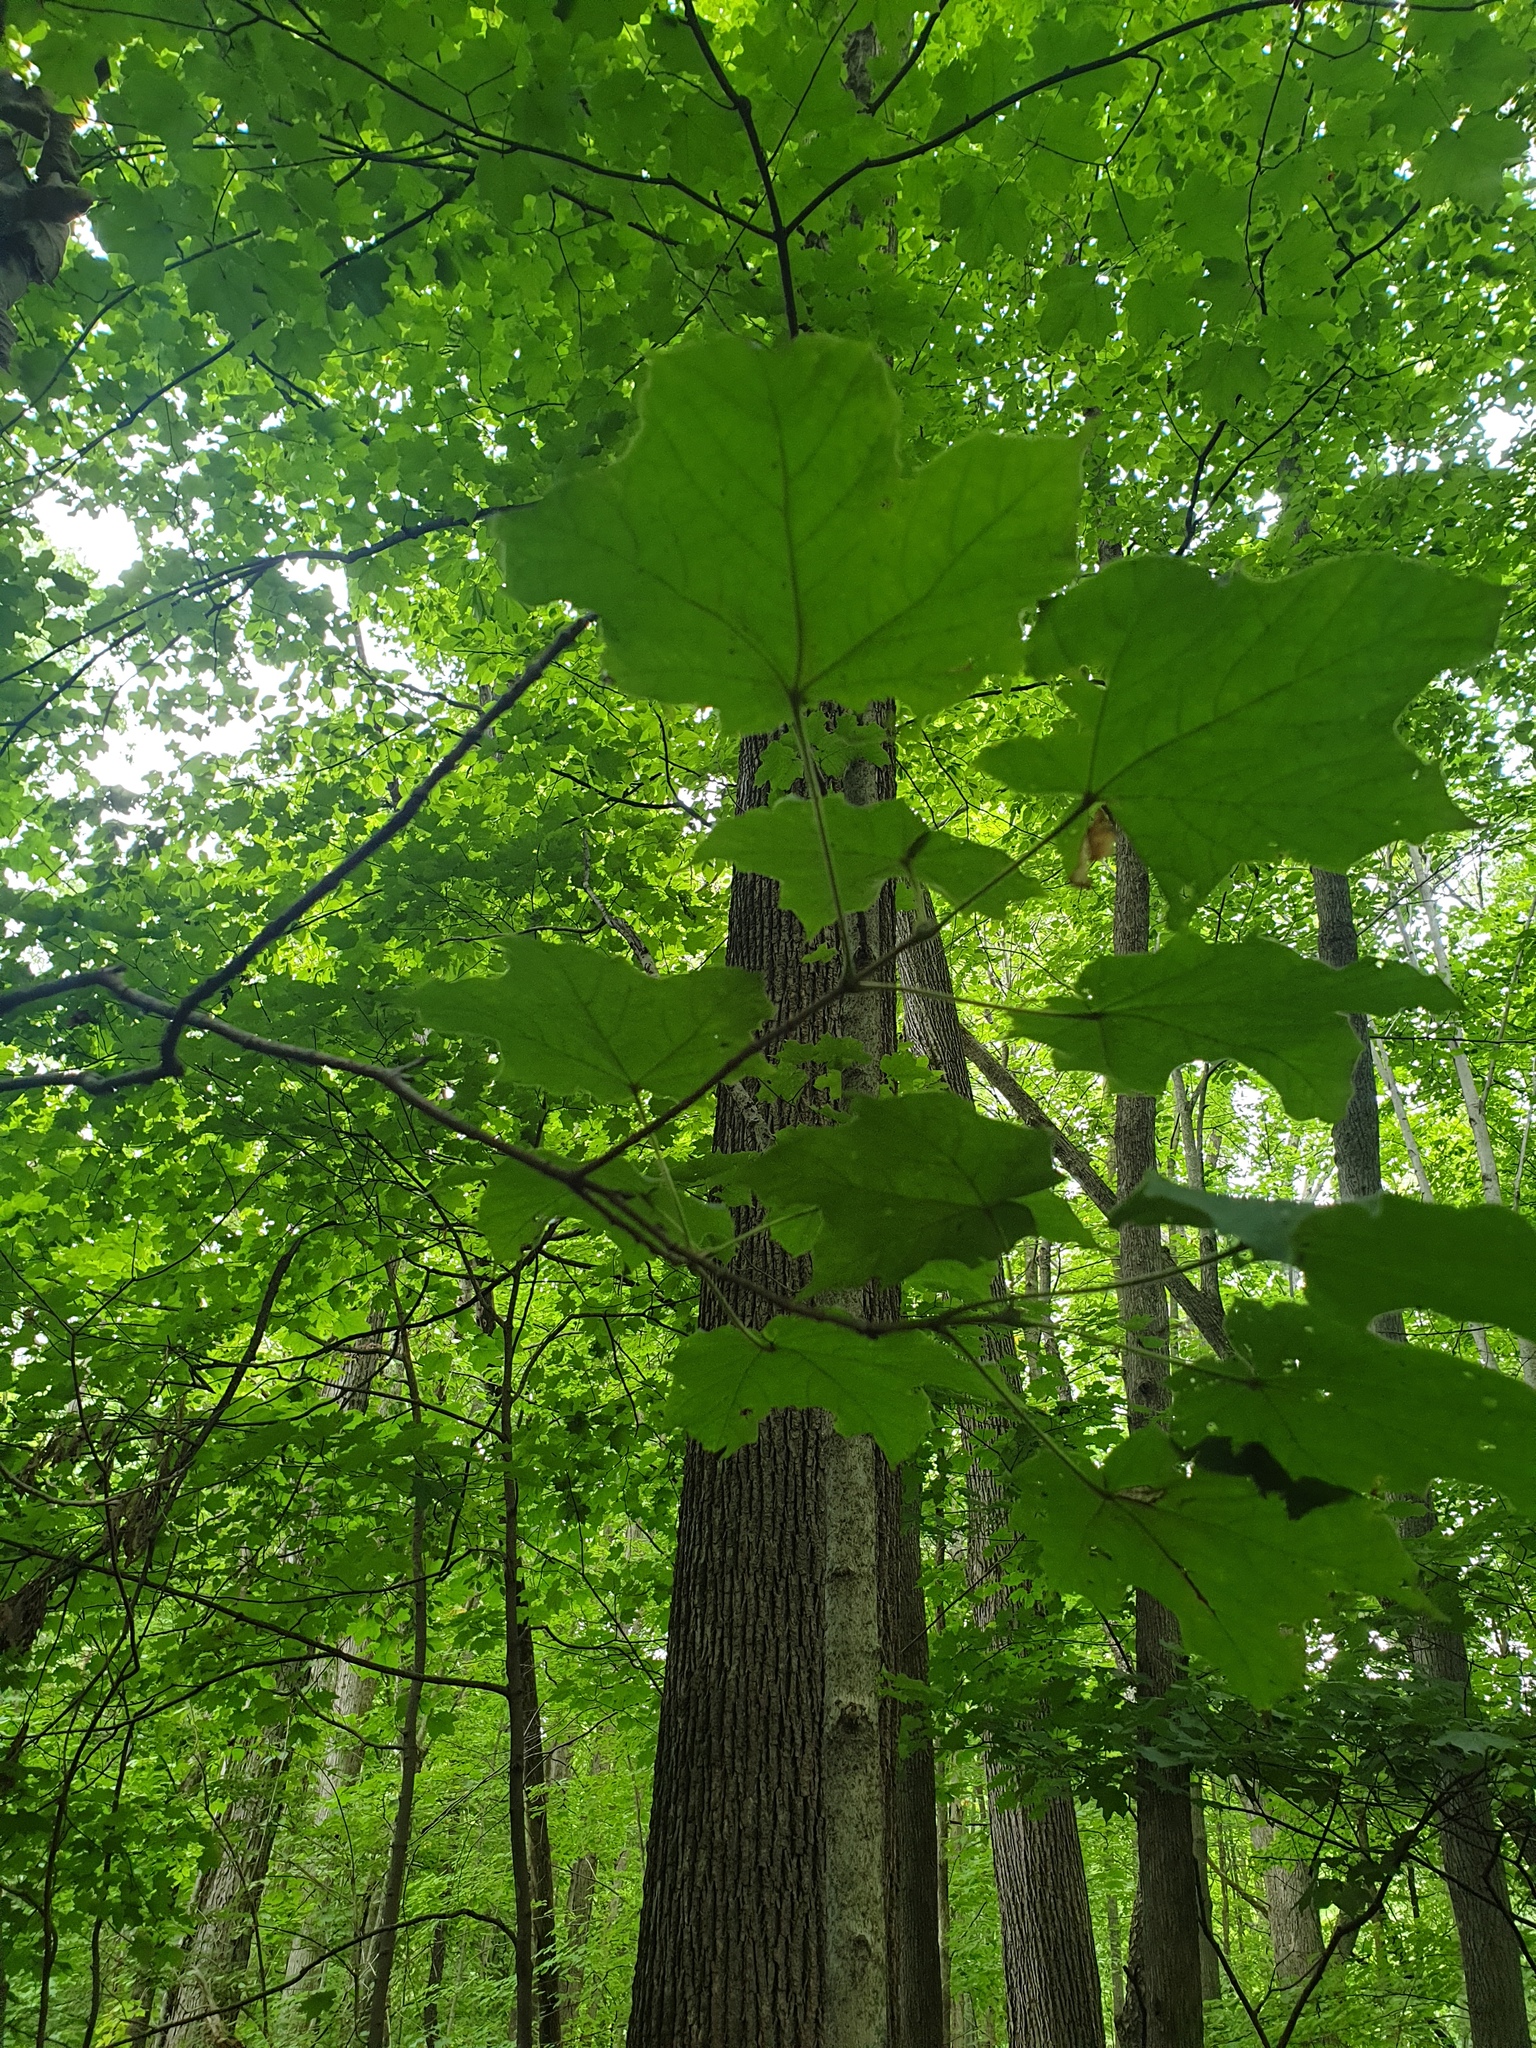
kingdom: Plantae
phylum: Tracheophyta
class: Magnoliopsida
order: Sapindales
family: Sapindaceae
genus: Acer
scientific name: Acer nigrum
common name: Black maple
